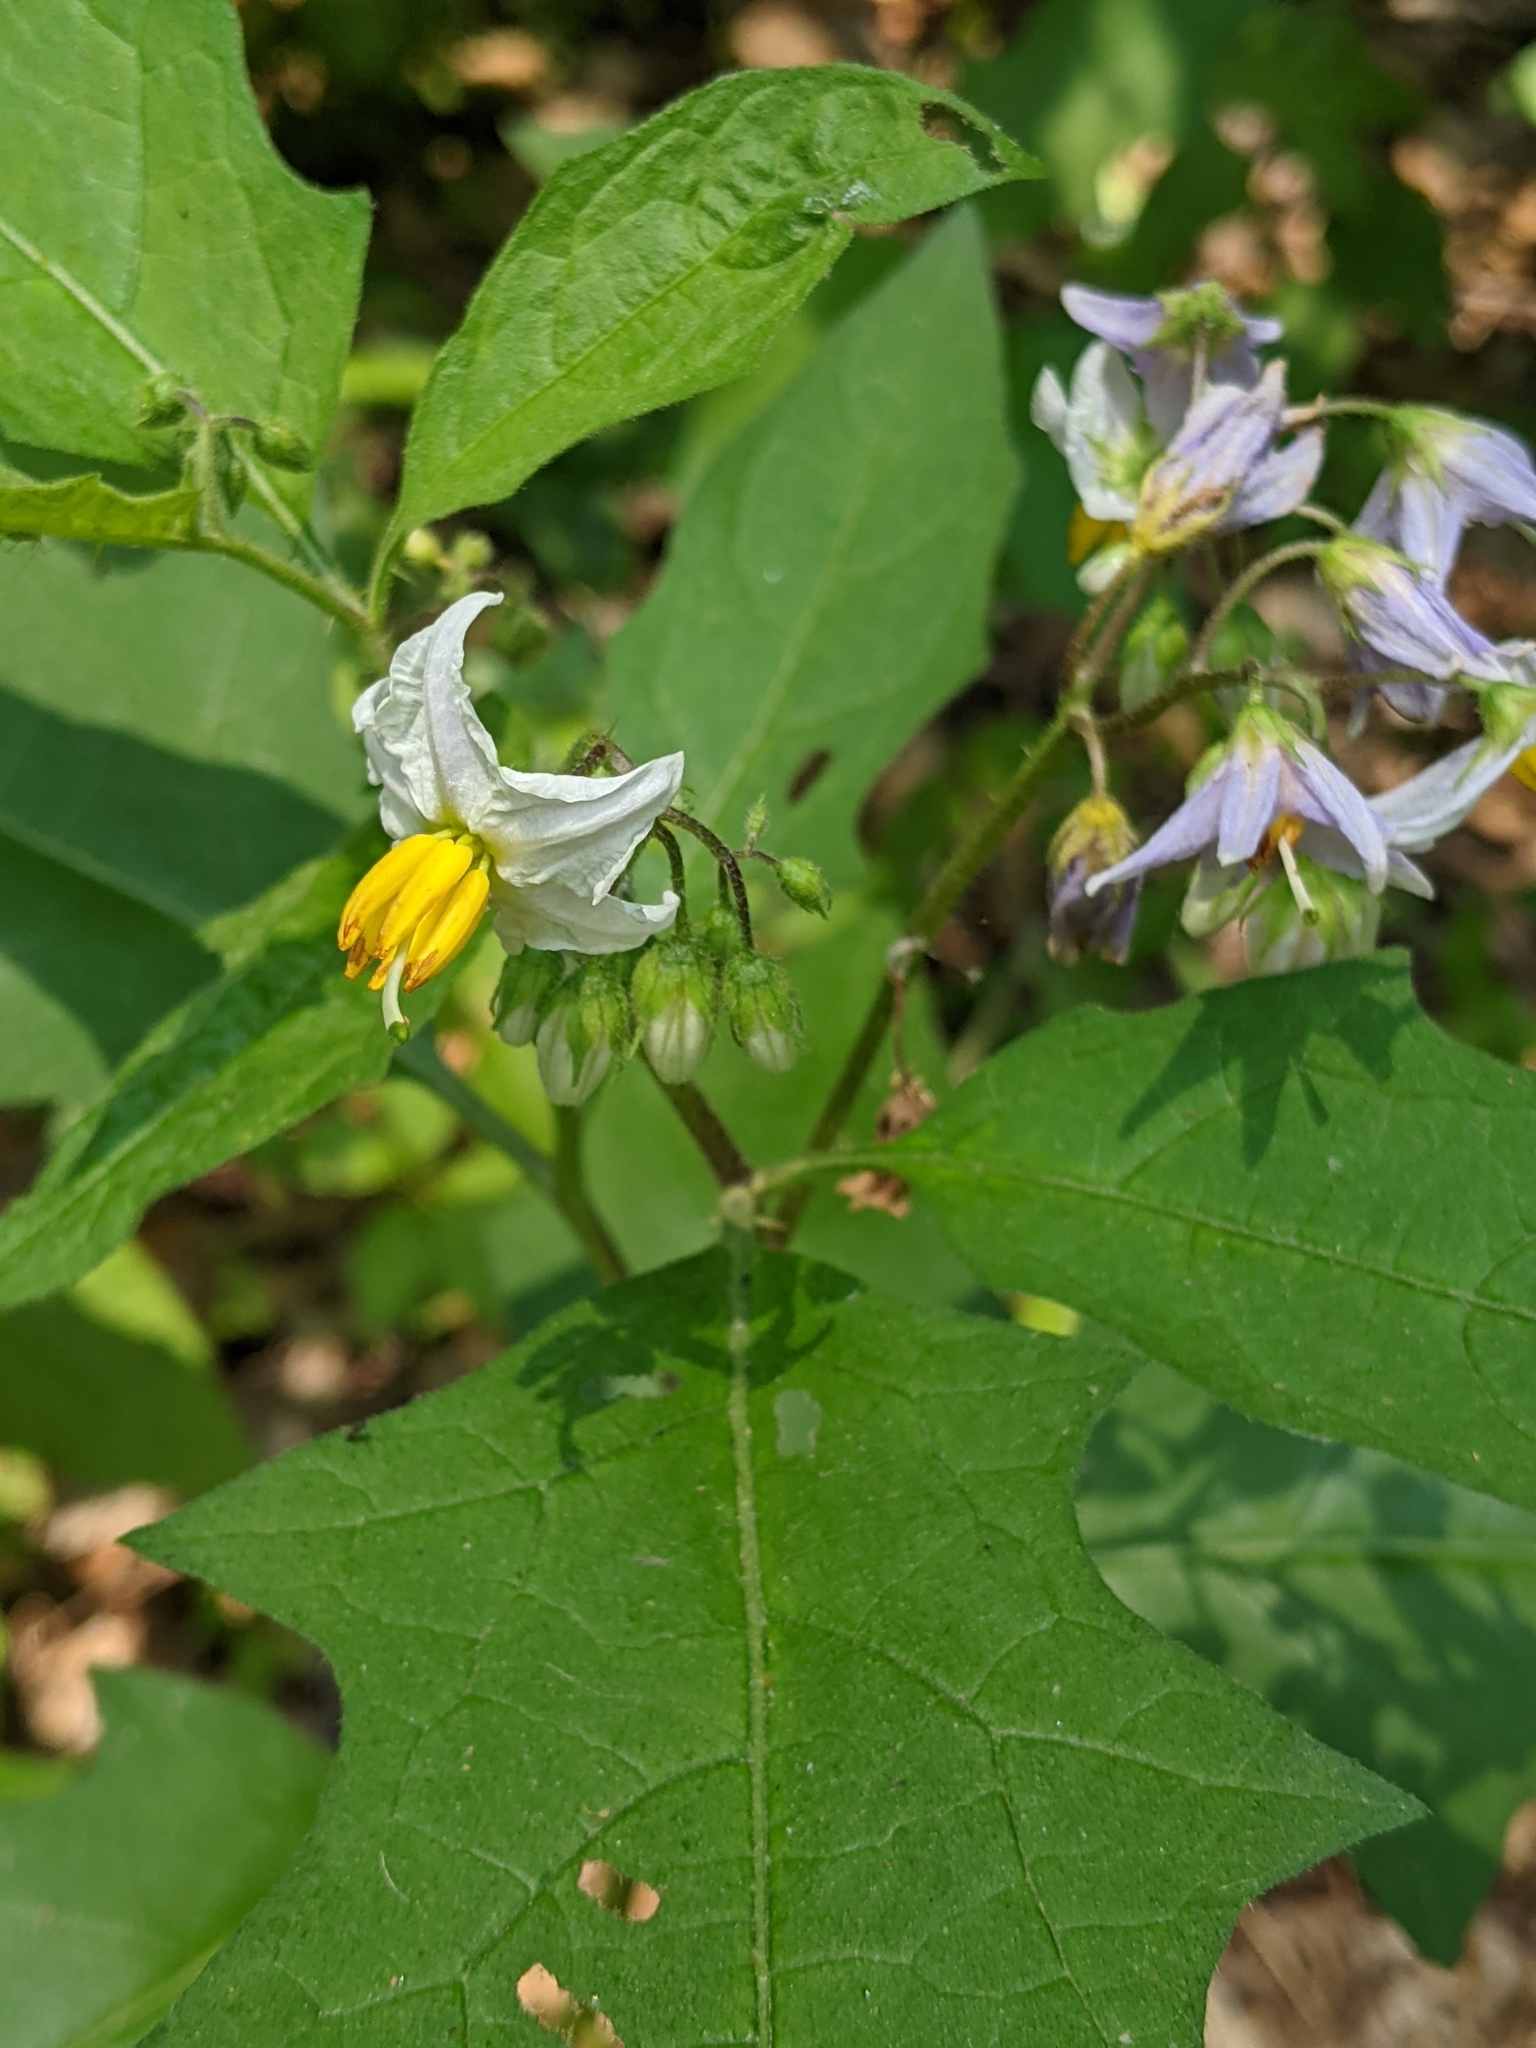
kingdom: Plantae
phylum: Tracheophyta
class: Magnoliopsida
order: Solanales
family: Solanaceae
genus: Solanum
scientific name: Solanum carolinense
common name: Horse-nettle
